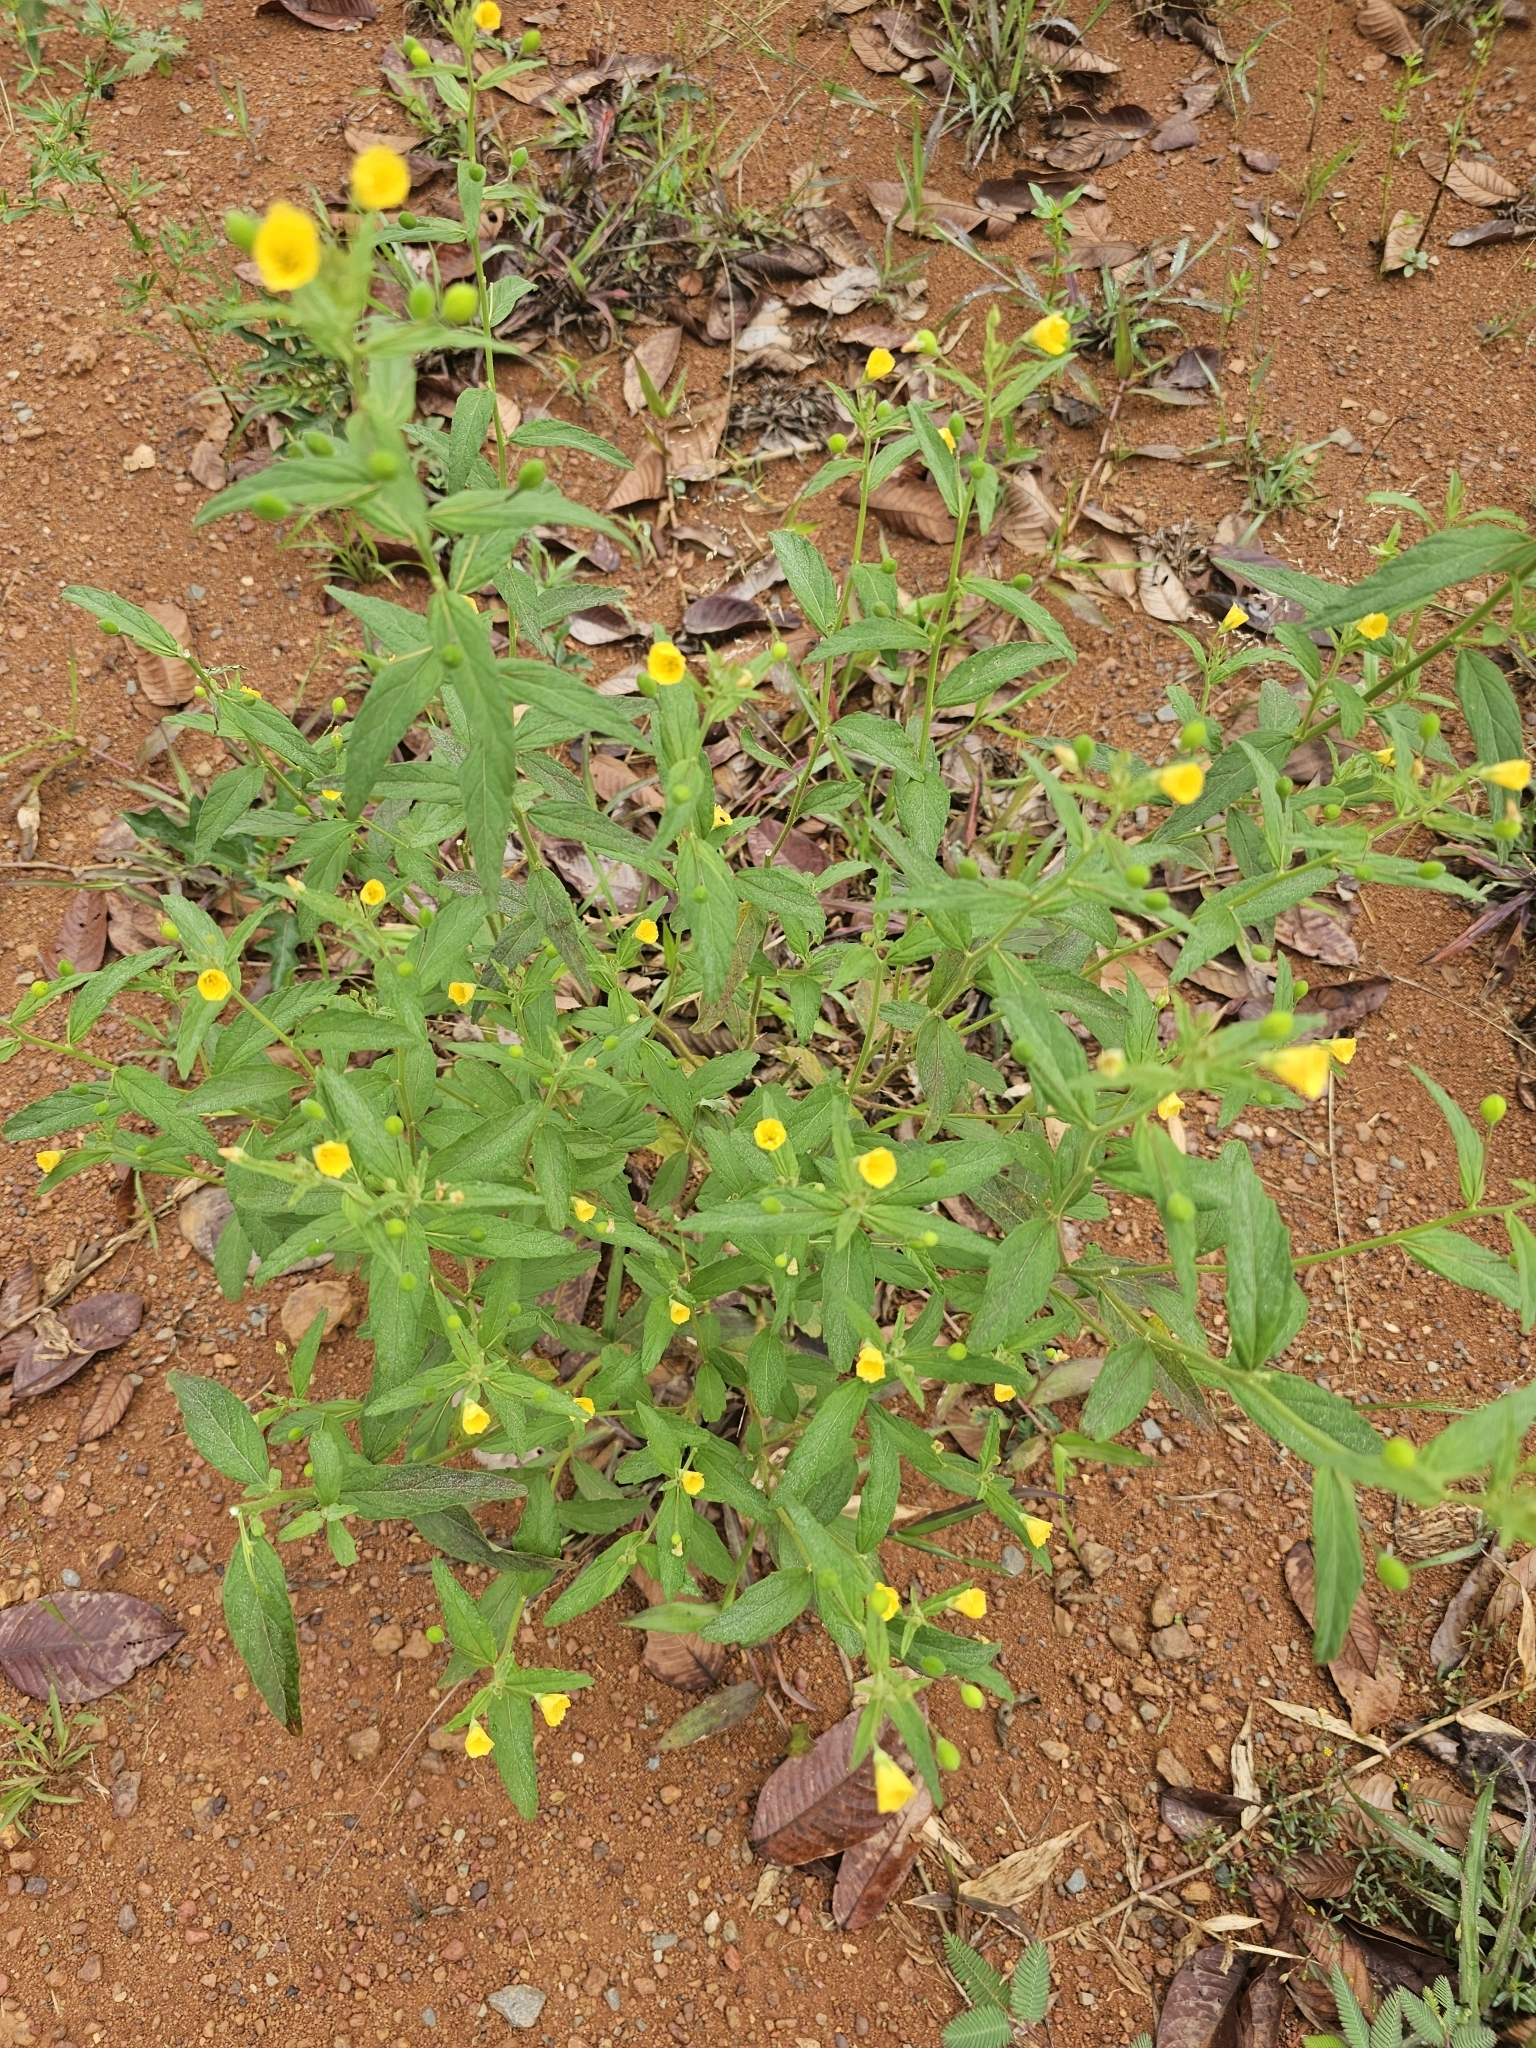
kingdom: Plantae
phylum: Tracheophyta
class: Magnoliopsida
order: Malpighiales
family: Turneraceae
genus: Piriqueta
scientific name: Piriqueta cistoides
